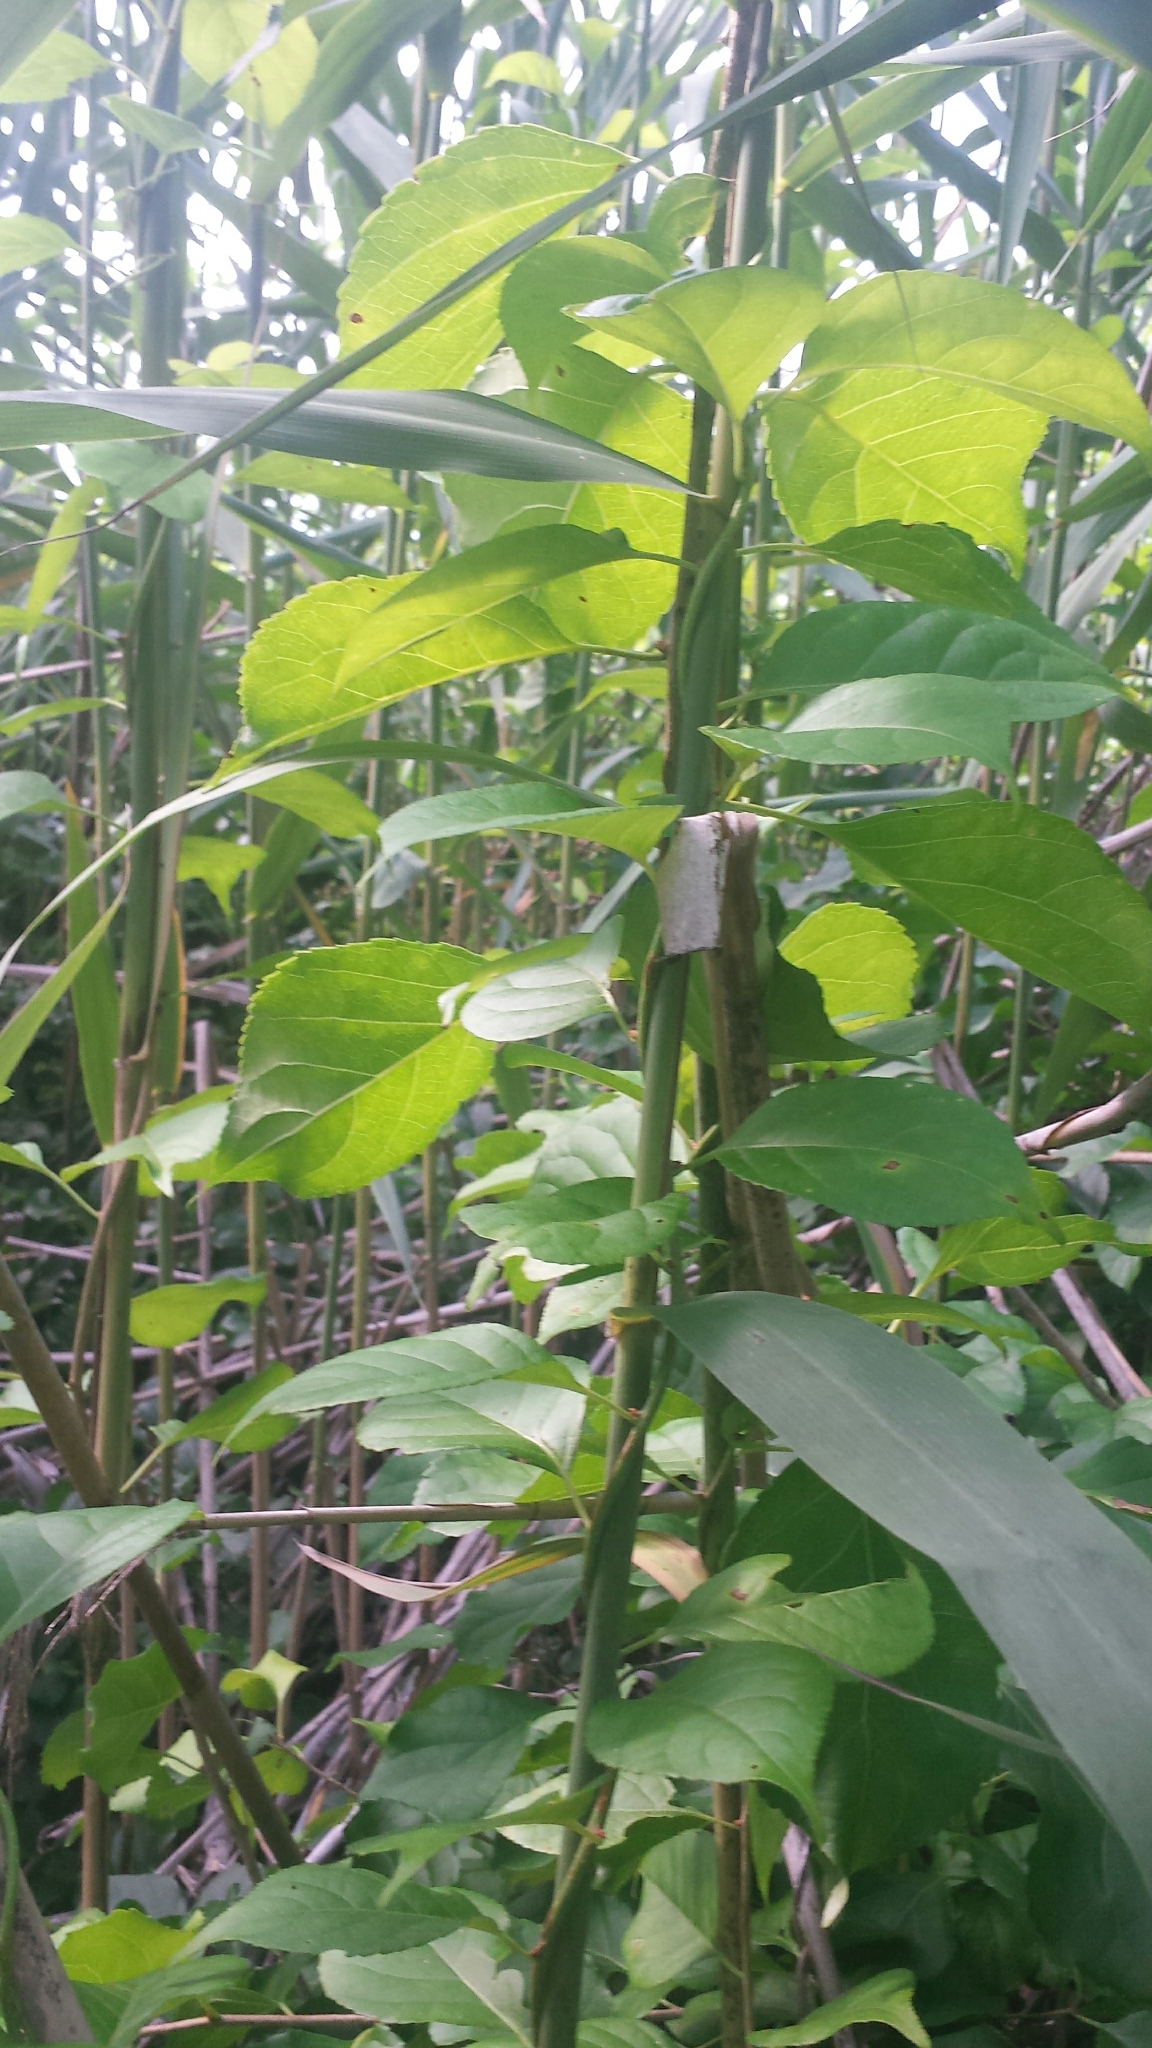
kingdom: Plantae
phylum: Tracheophyta
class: Liliopsida
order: Poales
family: Poaceae
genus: Phragmites
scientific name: Phragmites australis
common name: Common reed
